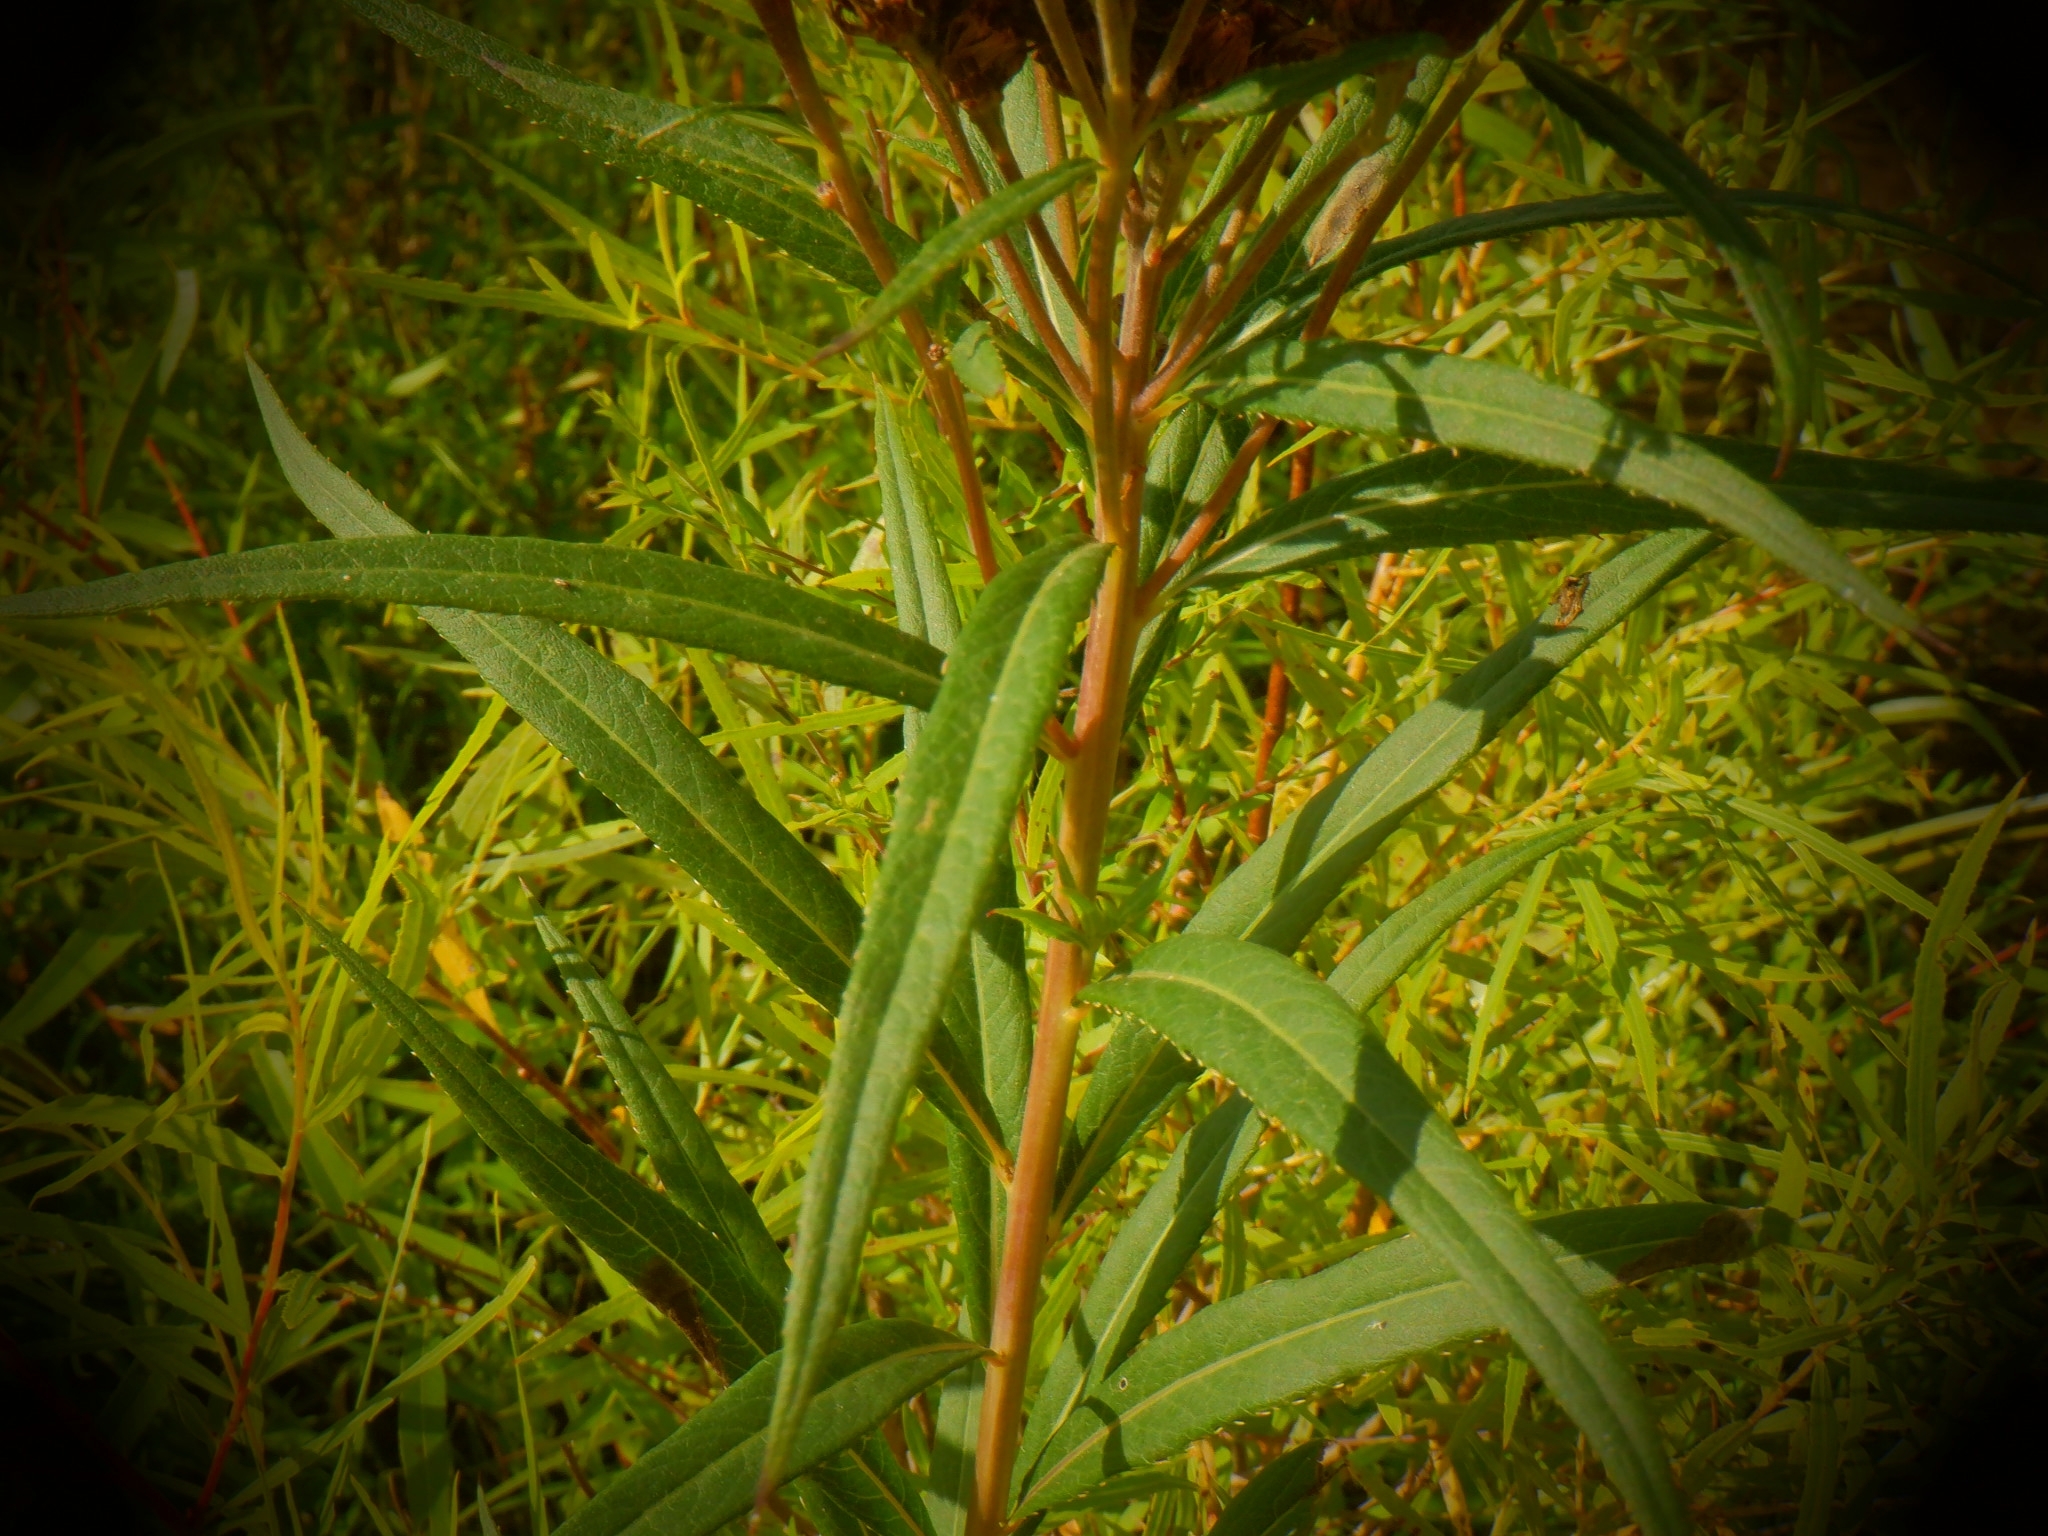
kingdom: Plantae
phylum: Tracheophyta
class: Magnoliopsida
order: Asterales
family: Asteraceae
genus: Vernonia
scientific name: Vernonia fasciculata
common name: Fascicled ironweed
